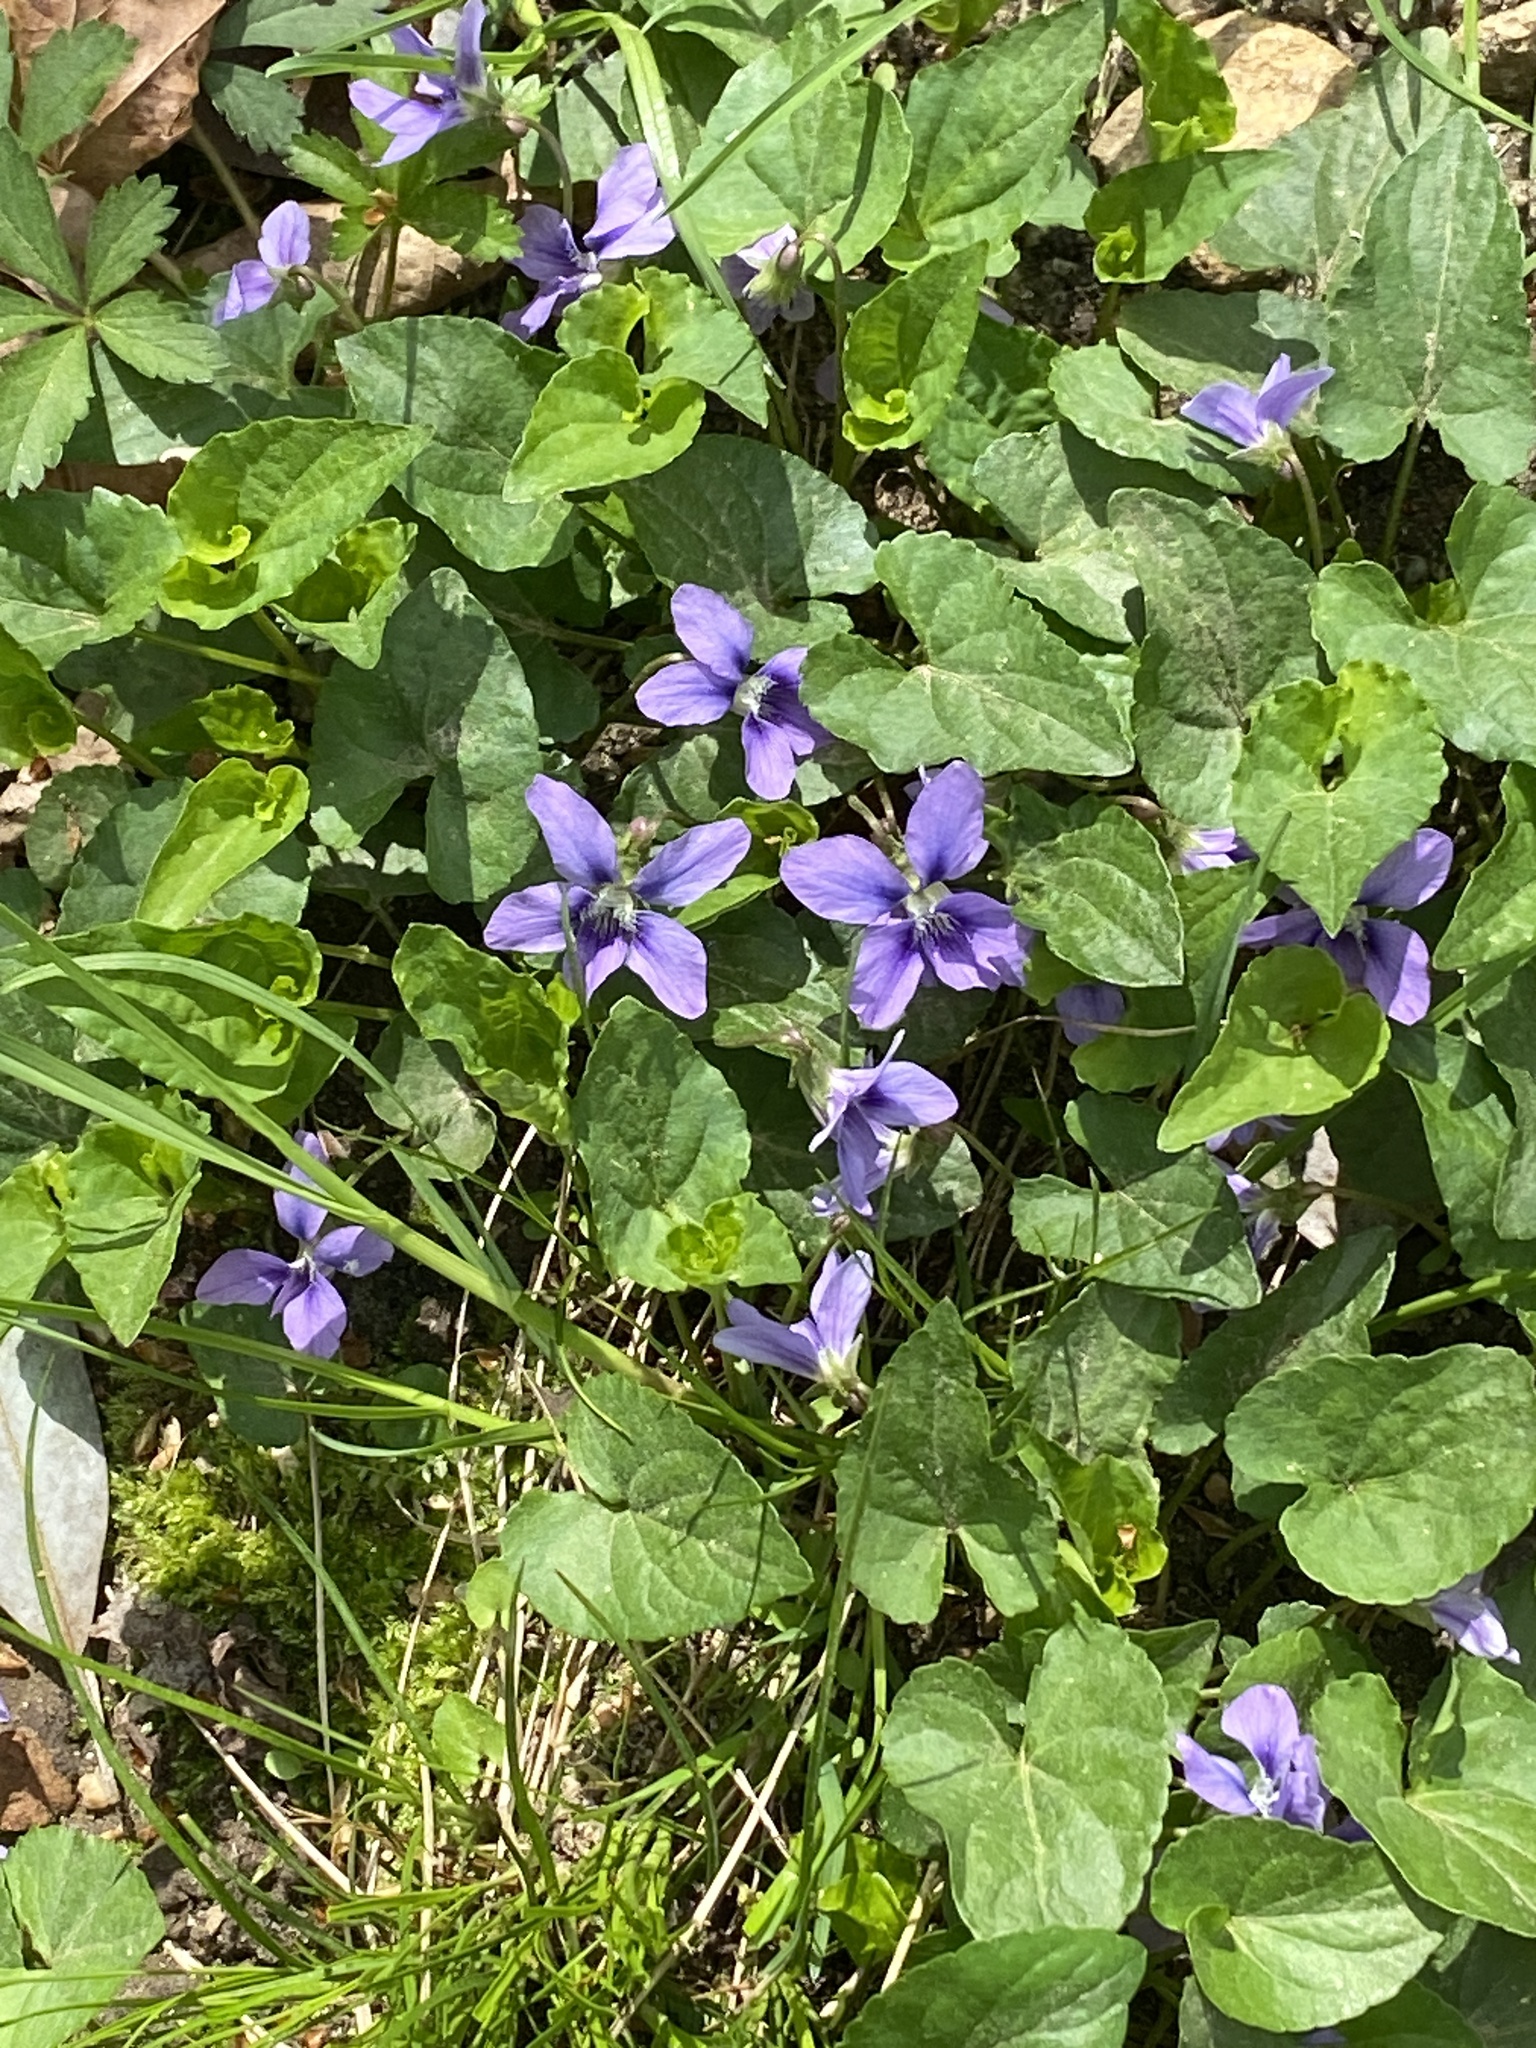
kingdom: Plantae
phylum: Tracheophyta
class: Magnoliopsida
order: Malpighiales
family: Violaceae
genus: Viola
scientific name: Viola sororia
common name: Dooryard violet
